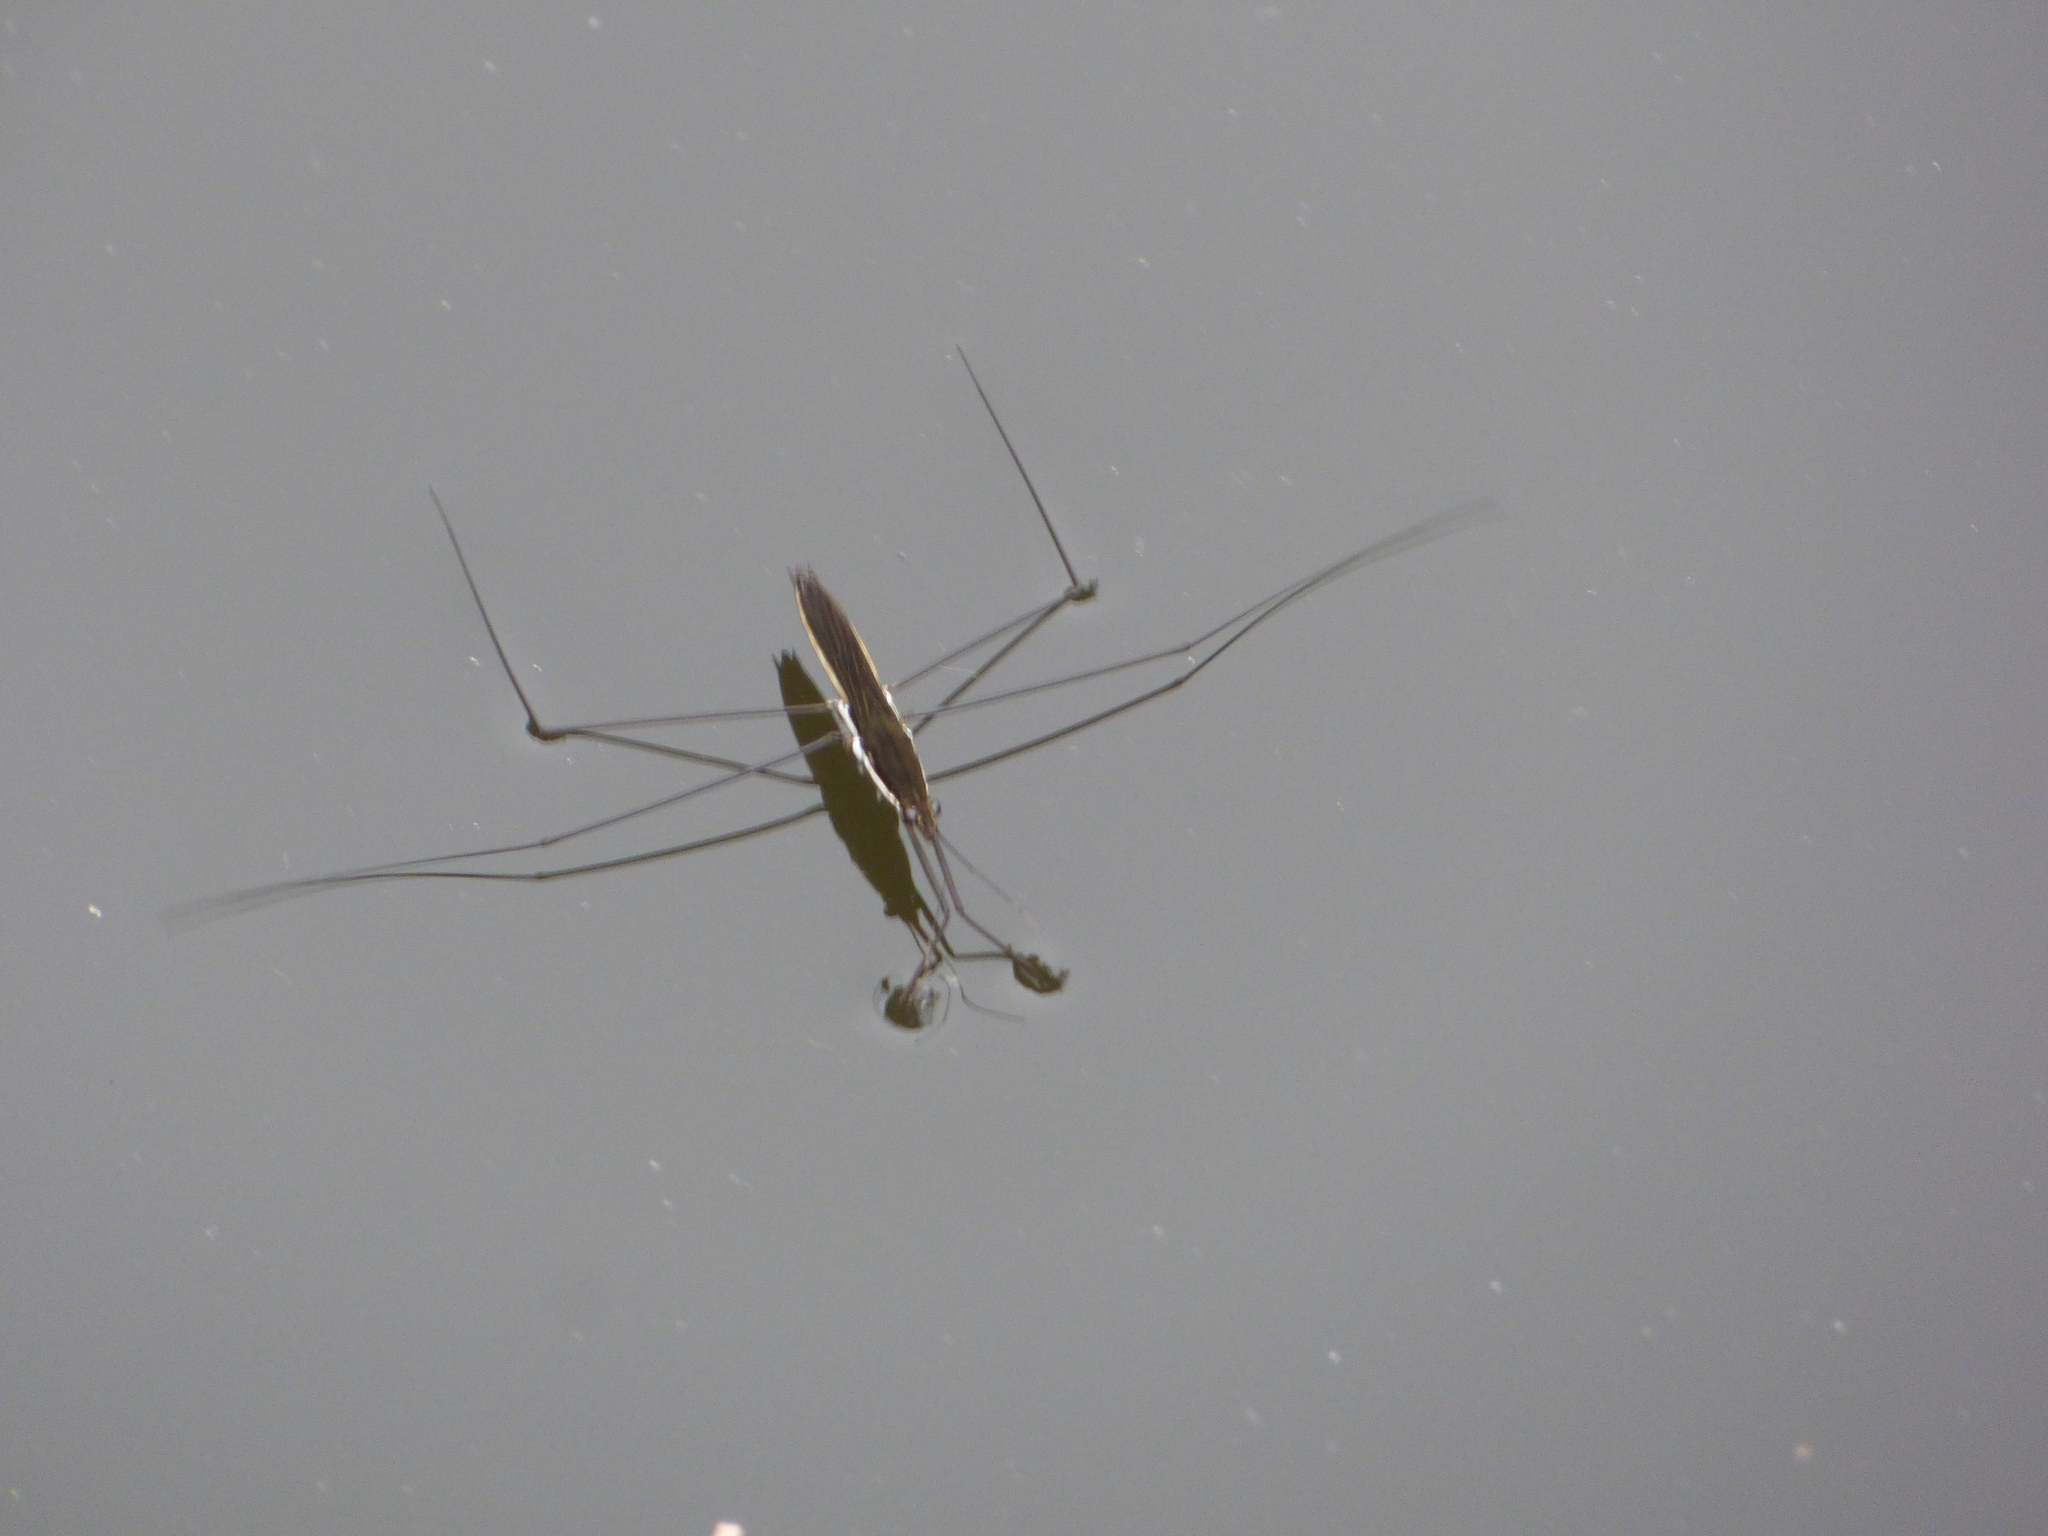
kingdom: Animalia
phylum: Arthropoda
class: Insecta
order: Hemiptera
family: Gerridae
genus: Aquarius
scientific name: Aquarius elongatus
